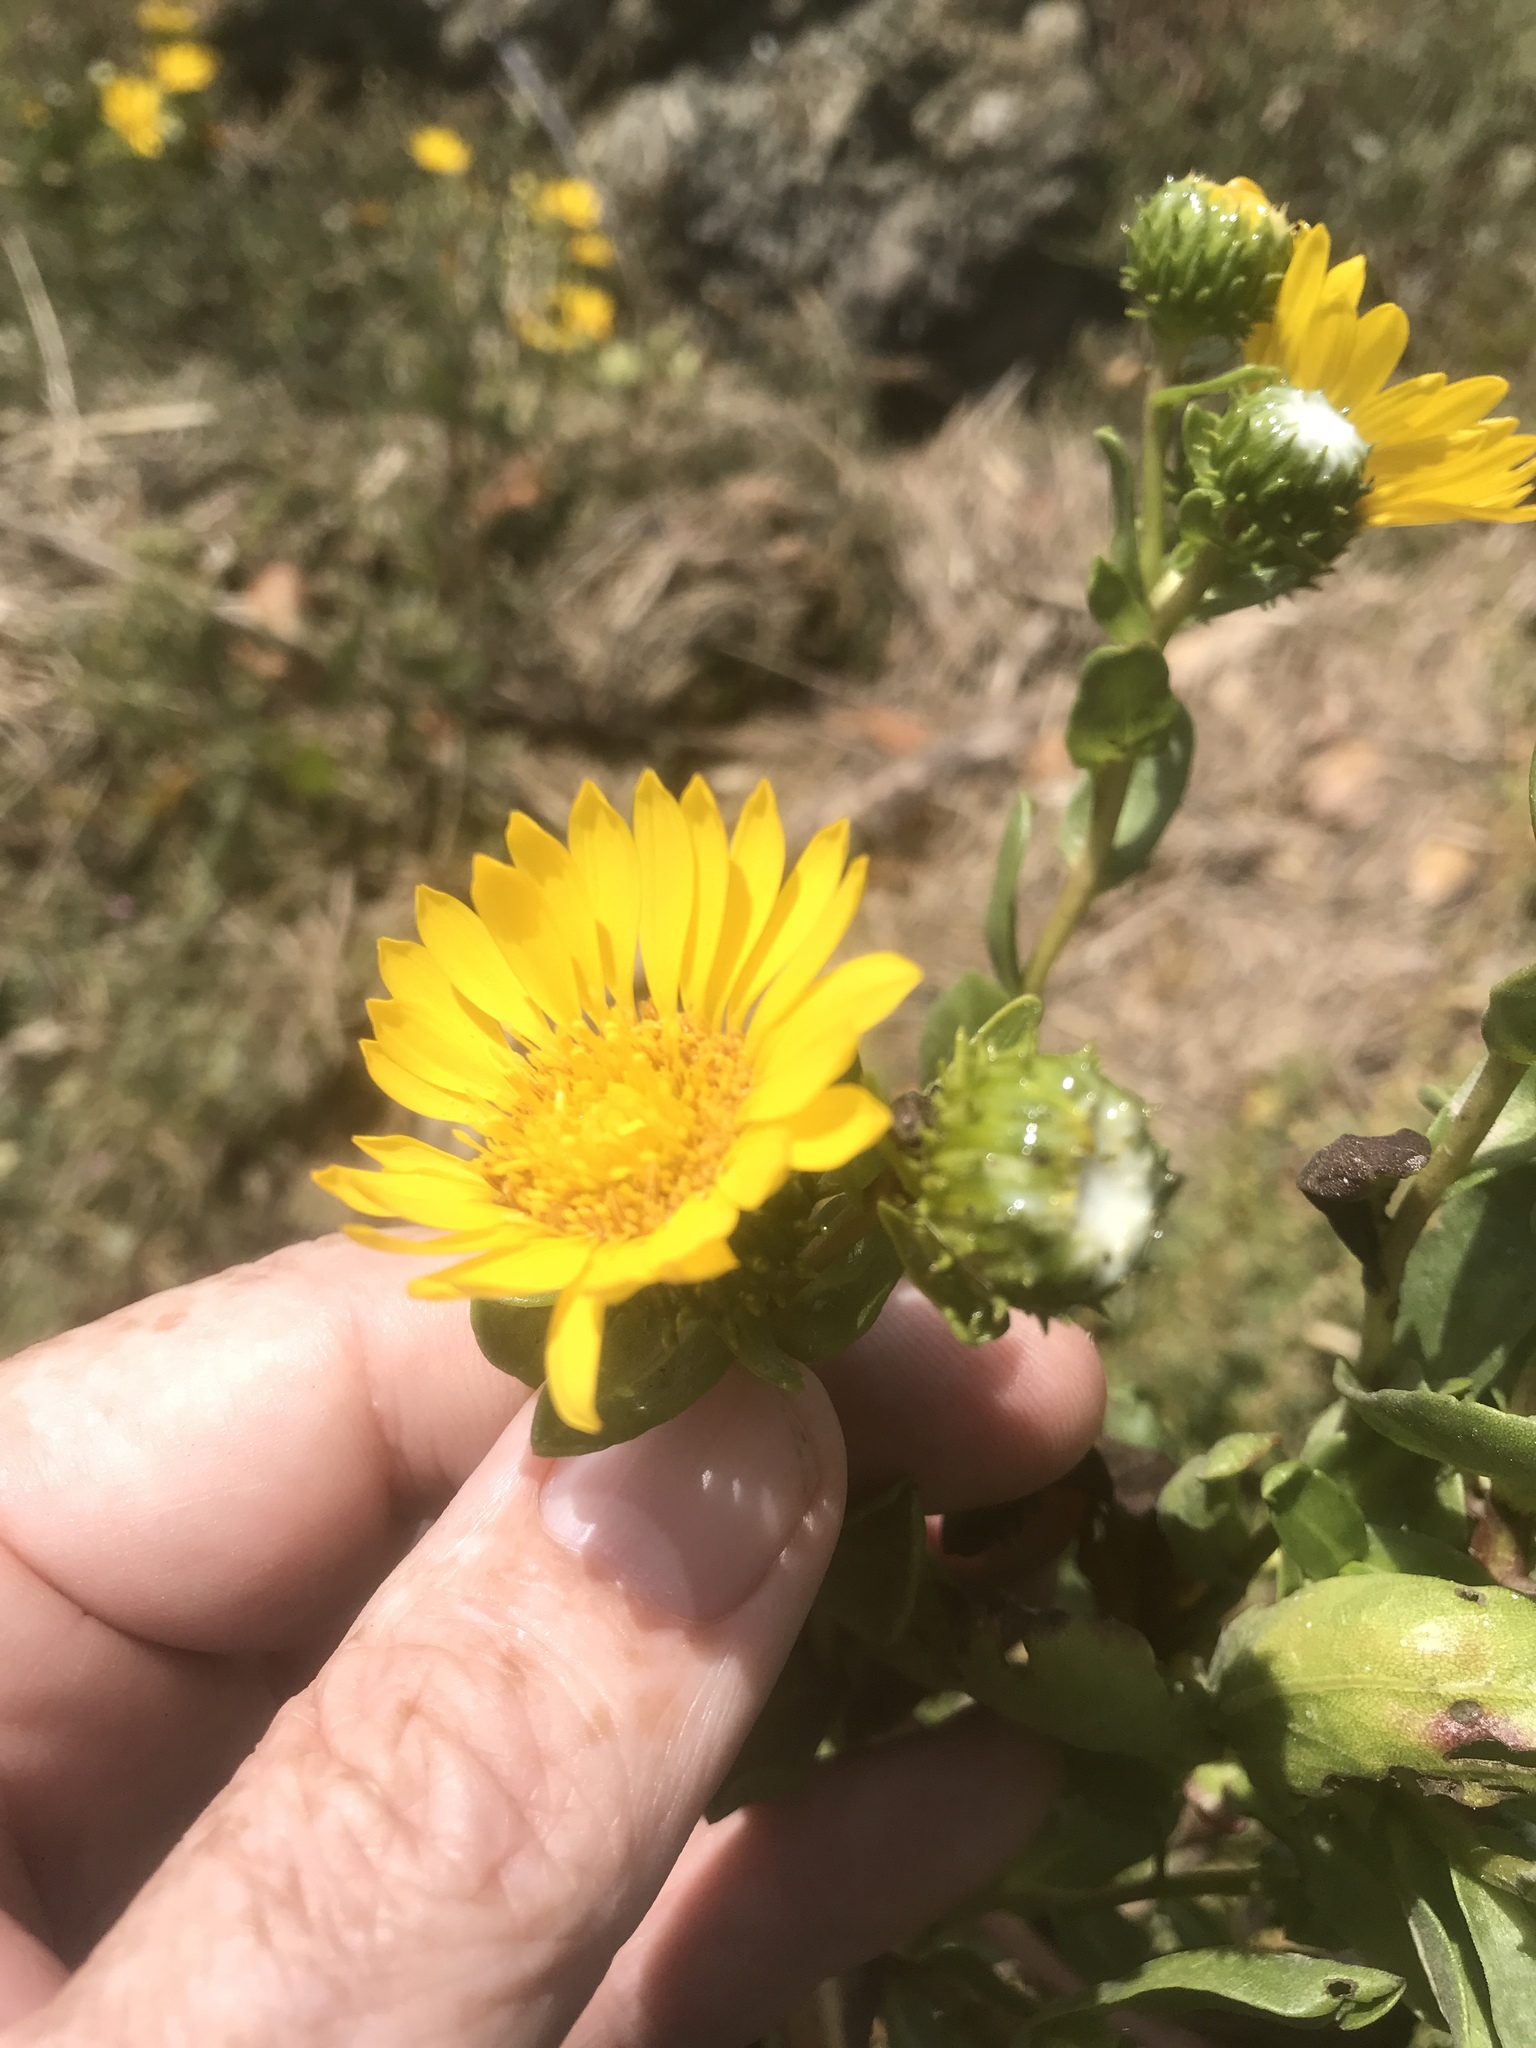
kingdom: Plantae
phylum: Tracheophyta
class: Magnoliopsida
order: Asterales
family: Asteraceae
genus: Grindelia
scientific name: Grindelia hirsutula
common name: Hairy gumweed
